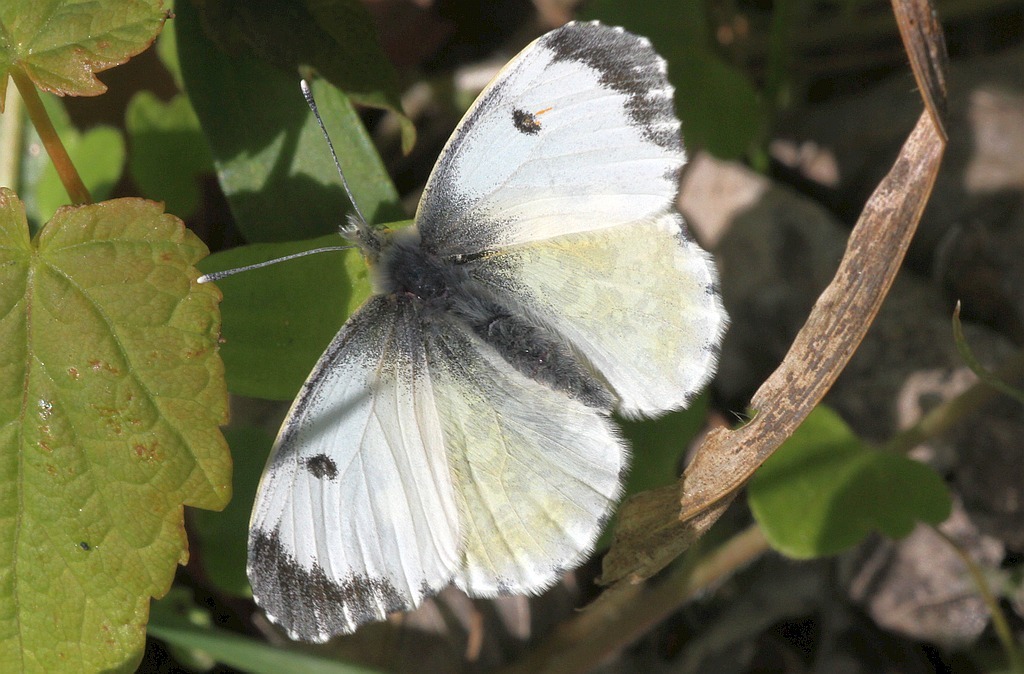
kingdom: Animalia
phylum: Arthropoda
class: Insecta
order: Lepidoptera
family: Pieridae
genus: Anthocharis
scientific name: Anthocharis cardamines
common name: Orange-tip
